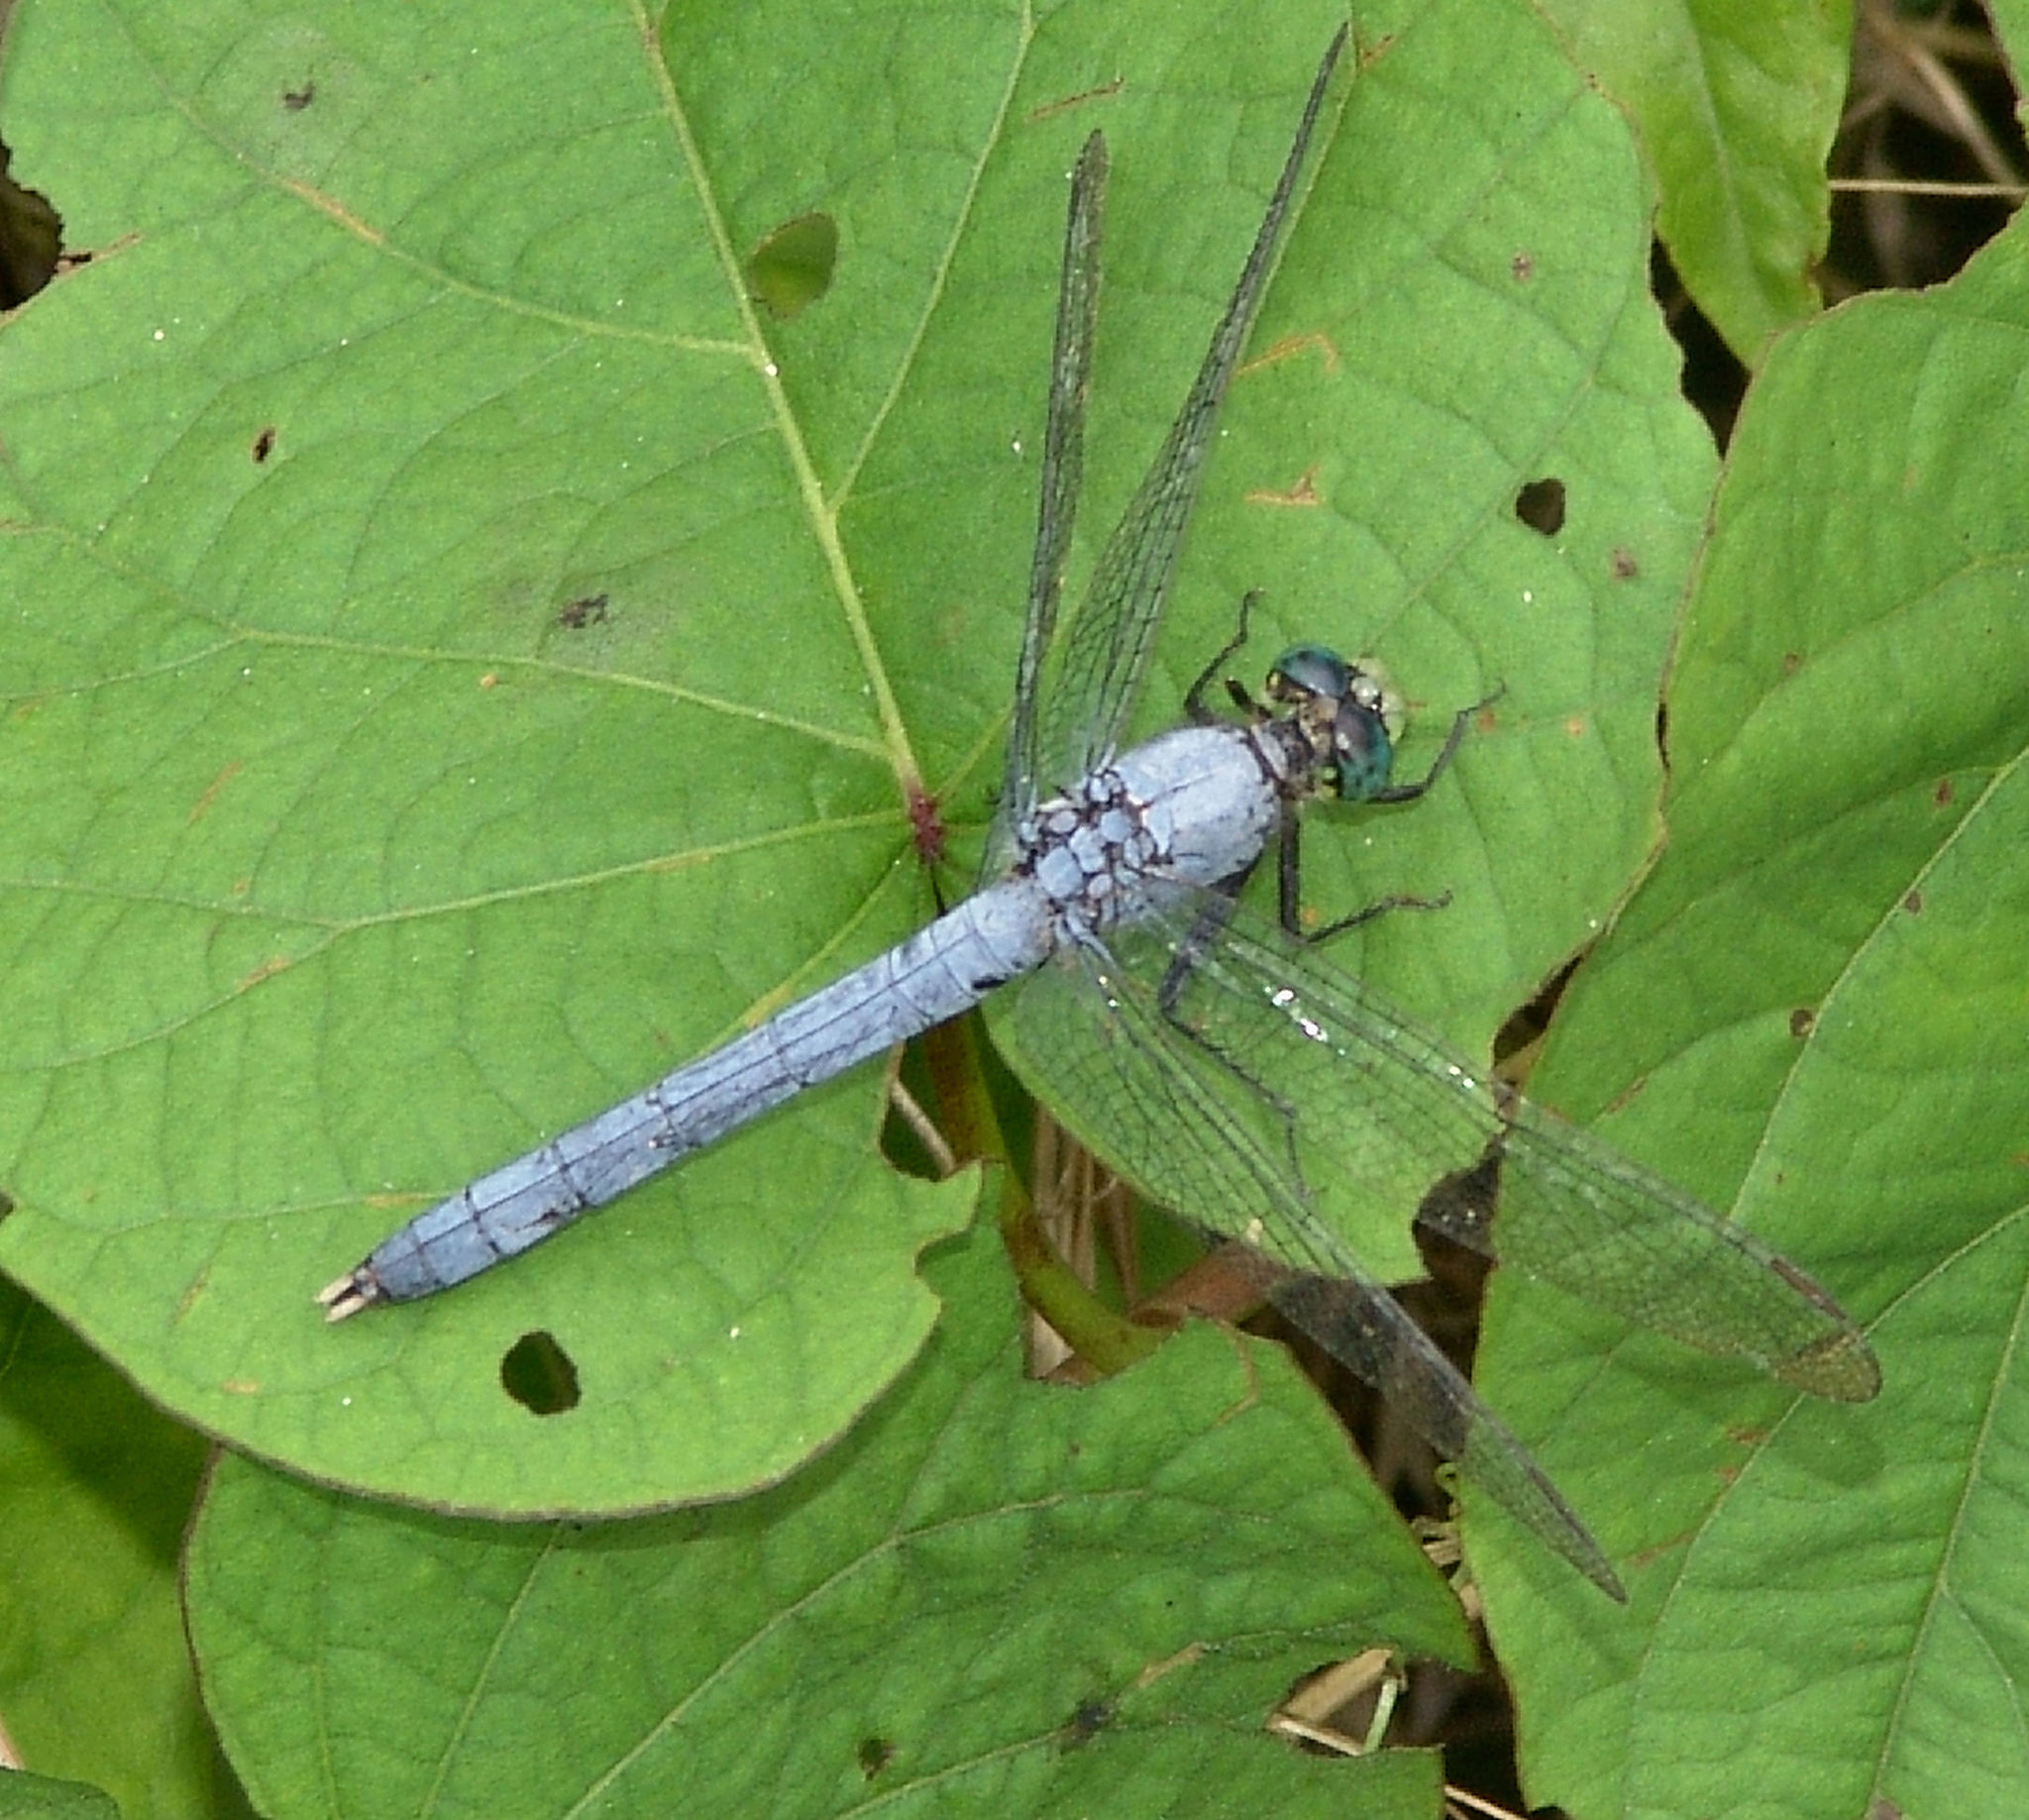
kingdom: Animalia
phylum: Arthropoda
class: Insecta
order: Odonata
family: Libellulidae
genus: Erythemis
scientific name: Erythemis simplicicollis
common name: Eastern pondhawk
